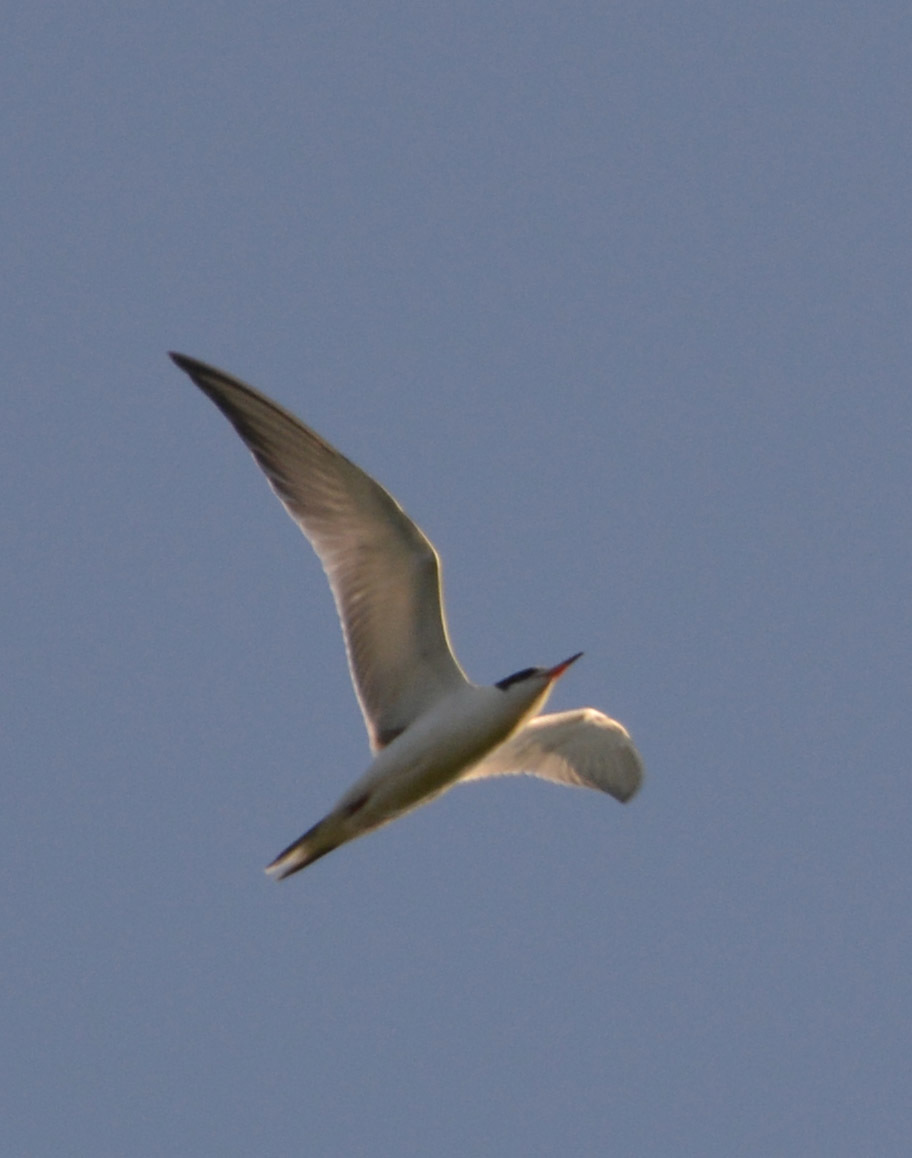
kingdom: Animalia
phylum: Chordata
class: Aves
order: Charadriiformes
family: Laridae
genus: Sterna
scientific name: Sterna hirundo
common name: Common tern
